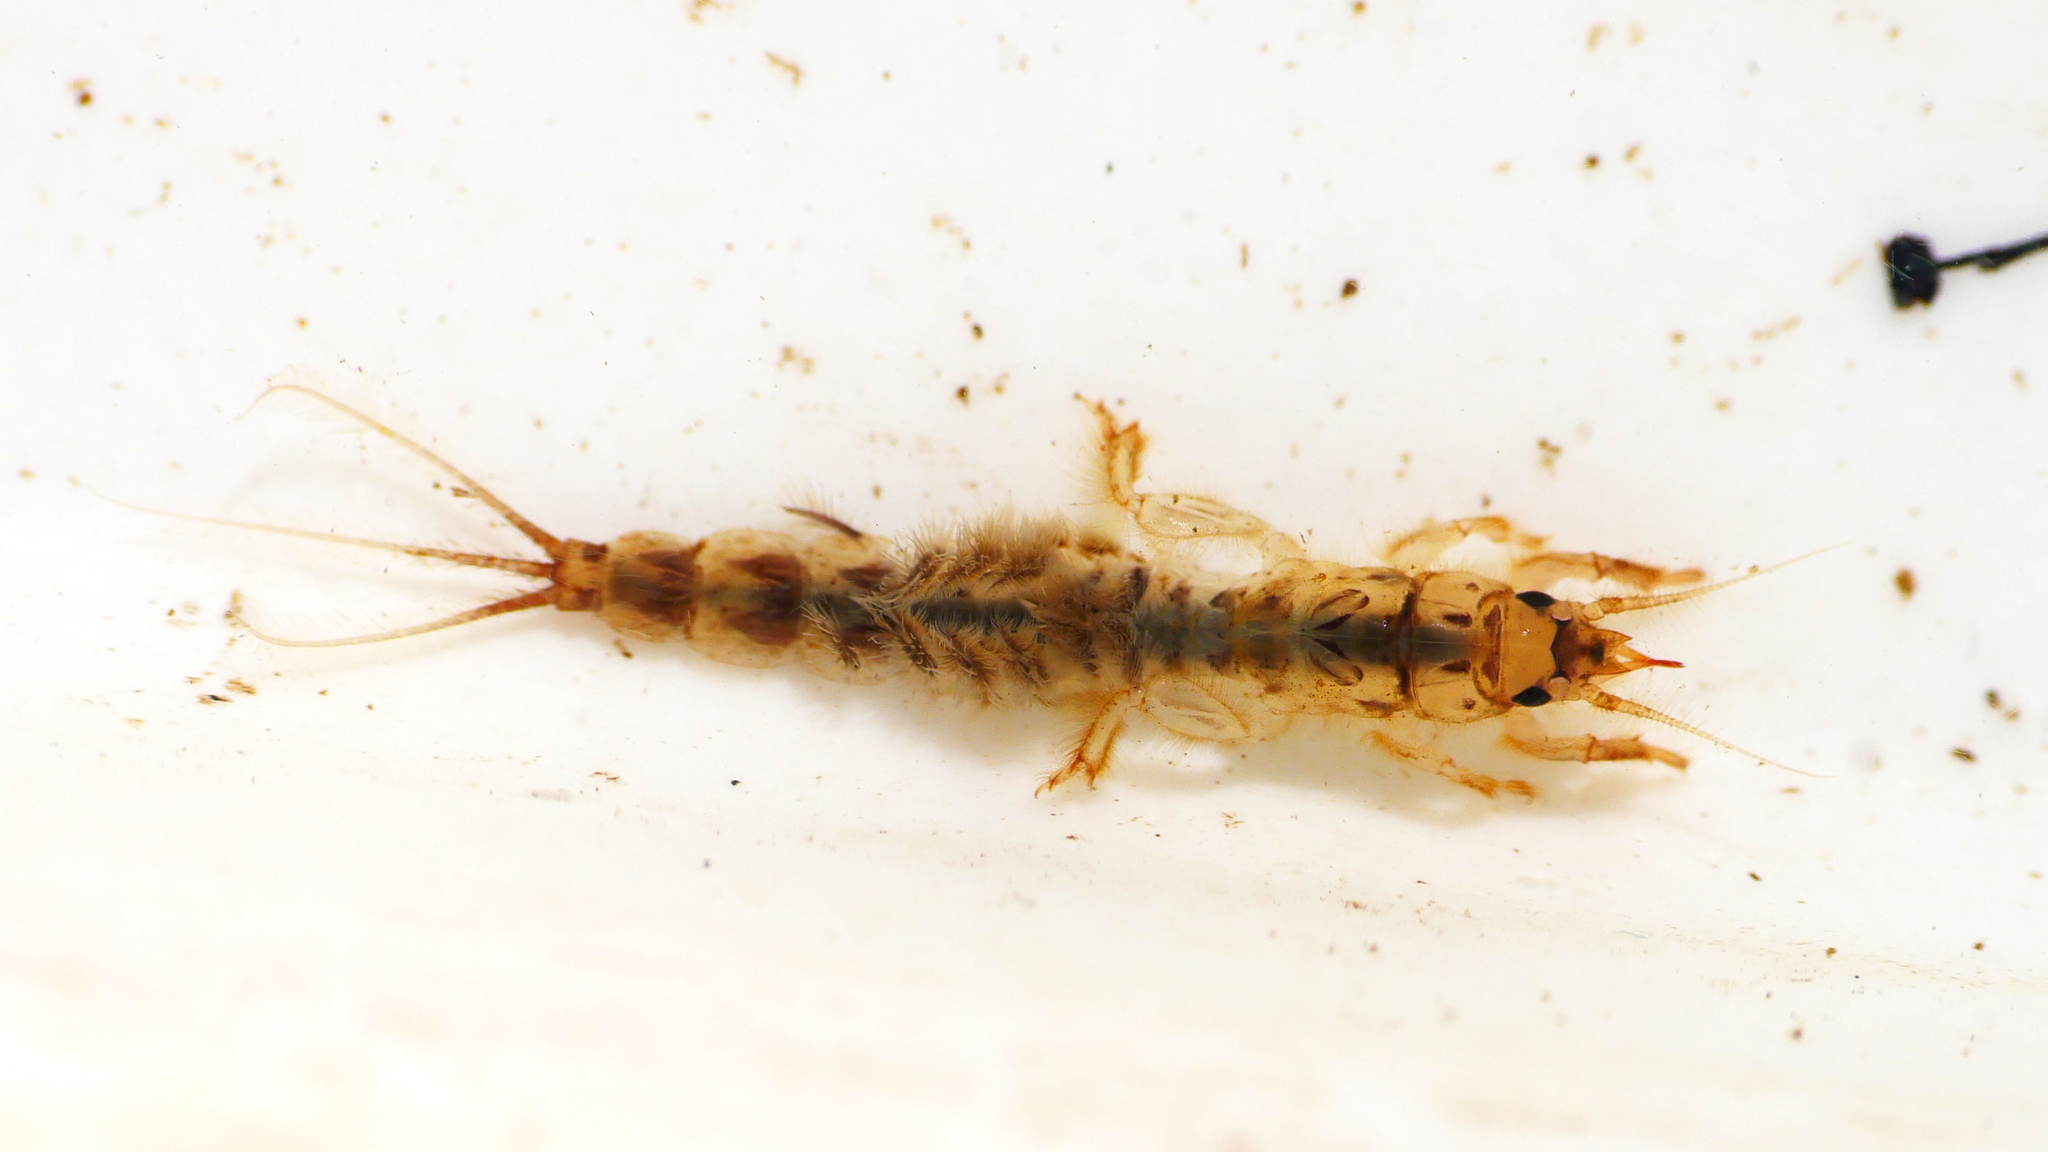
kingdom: Animalia
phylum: Arthropoda
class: Insecta
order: Ephemeroptera
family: Ephemeridae
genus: Ephemera
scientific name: Ephemera danica
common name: Green dun
